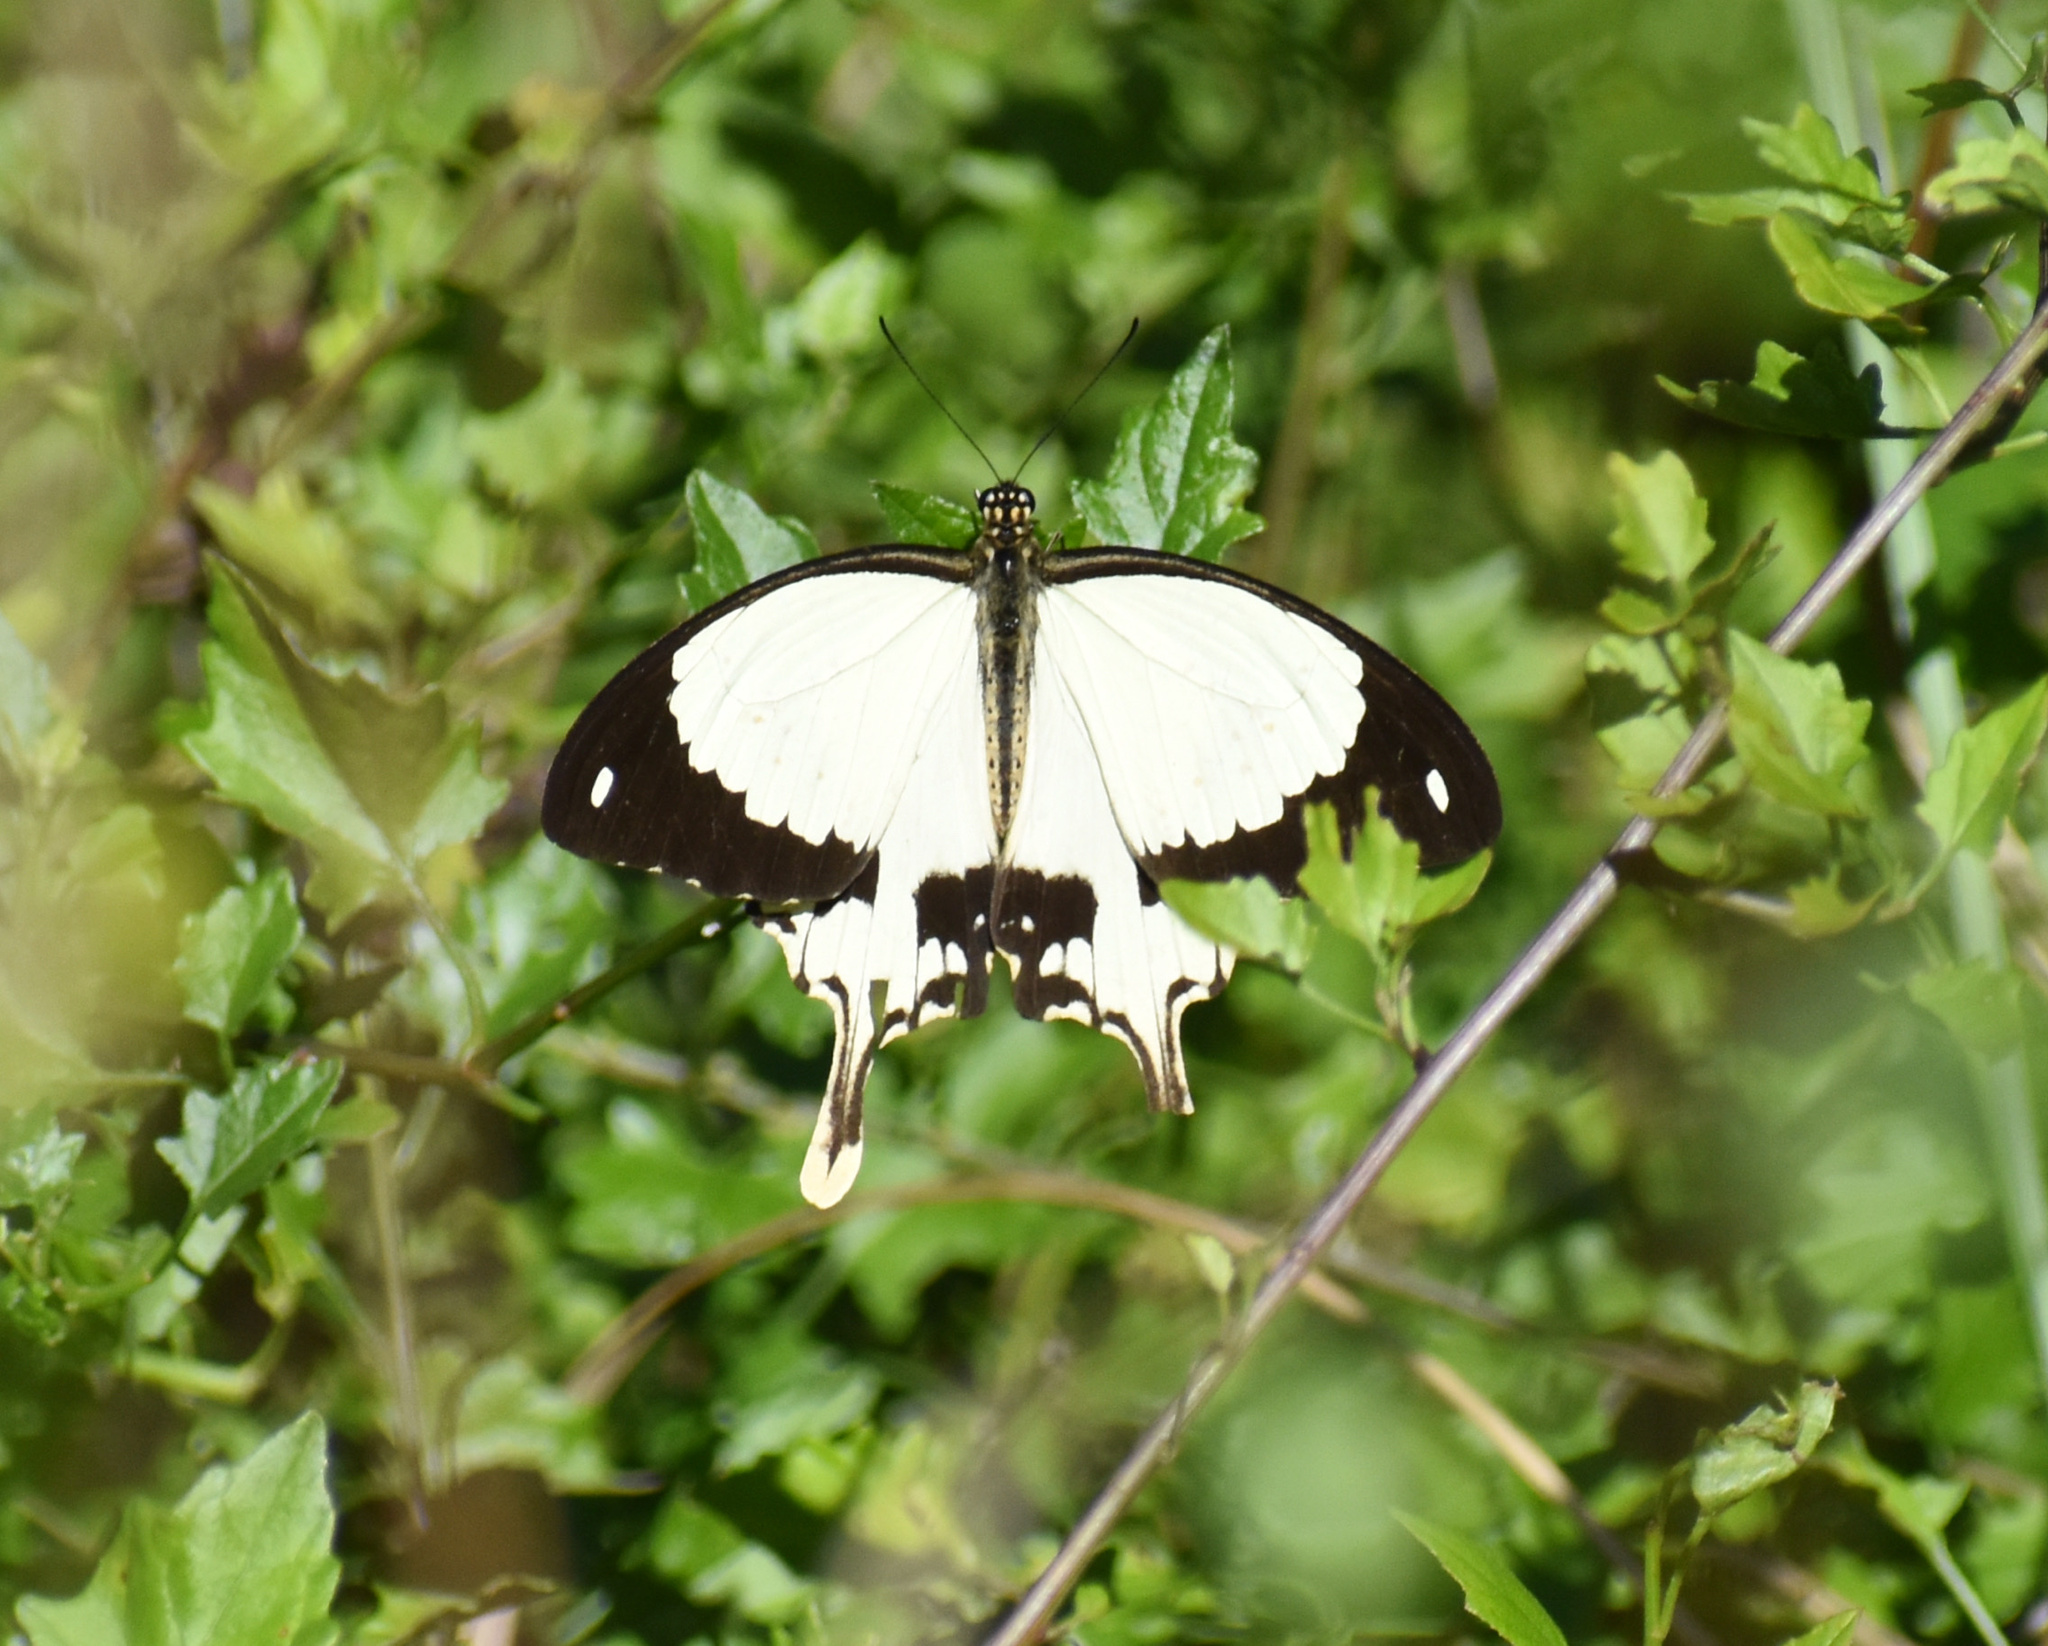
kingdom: Animalia
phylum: Arthropoda
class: Insecta
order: Lepidoptera
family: Papilionidae
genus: Papilio
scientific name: Papilio dardanus
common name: Flying handkerchief
